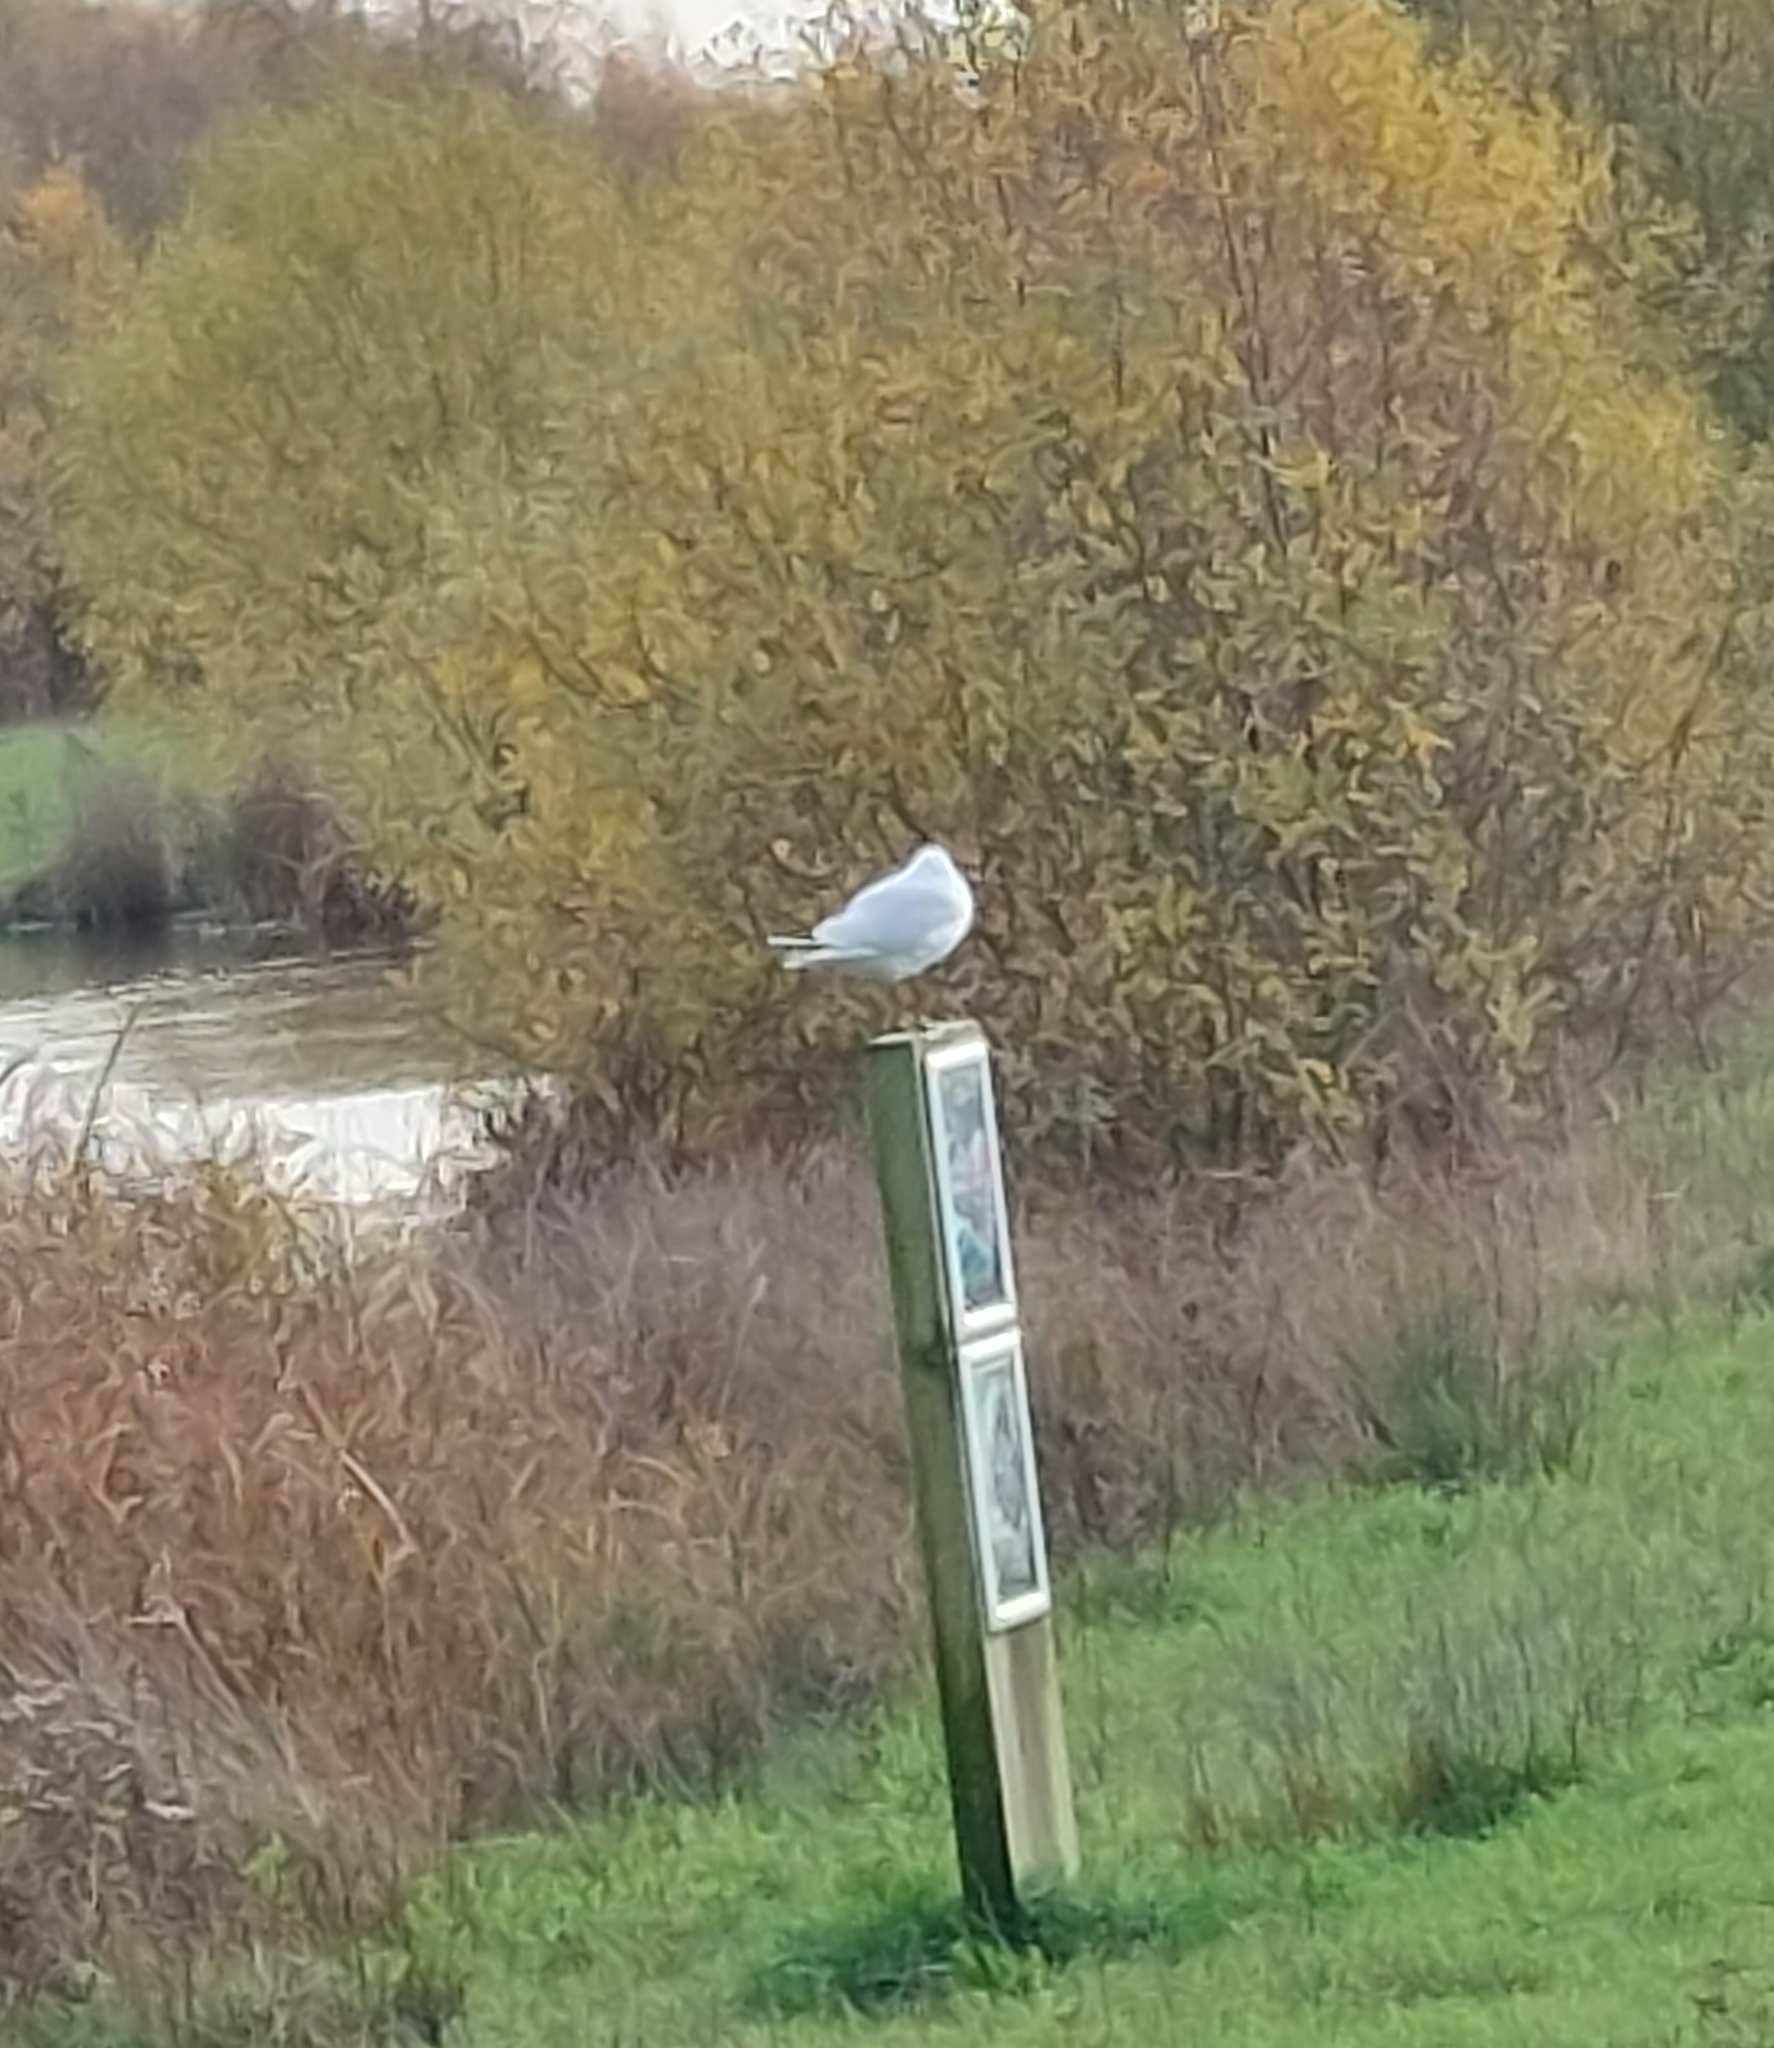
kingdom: Animalia
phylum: Chordata
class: Aves
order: Charadriiformes
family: Laridae
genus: Chroicocephalus
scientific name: Chroicocephalus ridibundus
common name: Black-headed gull
